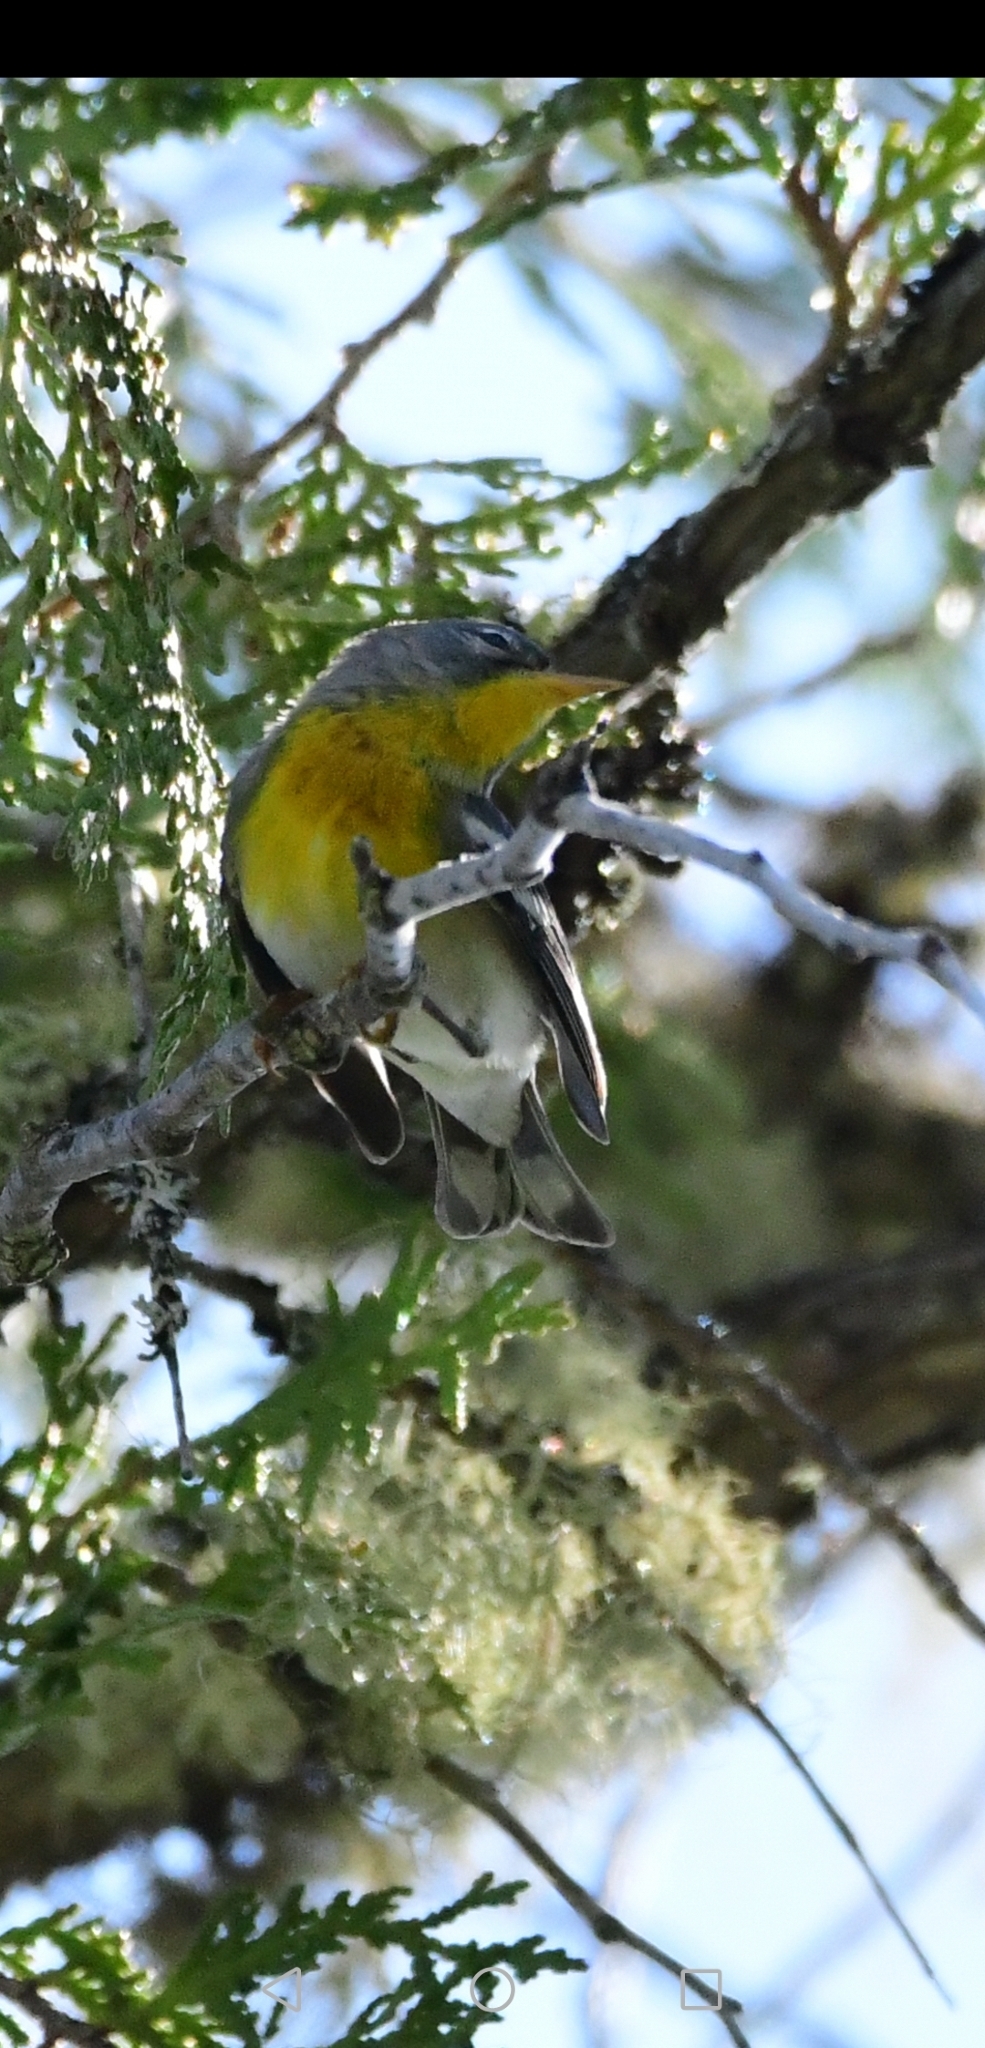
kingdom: Animalia
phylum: Chordata
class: Aves
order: Passeriformes
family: Parulidae
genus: Setophaga
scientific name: Setophaga americana
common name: Northern parula
